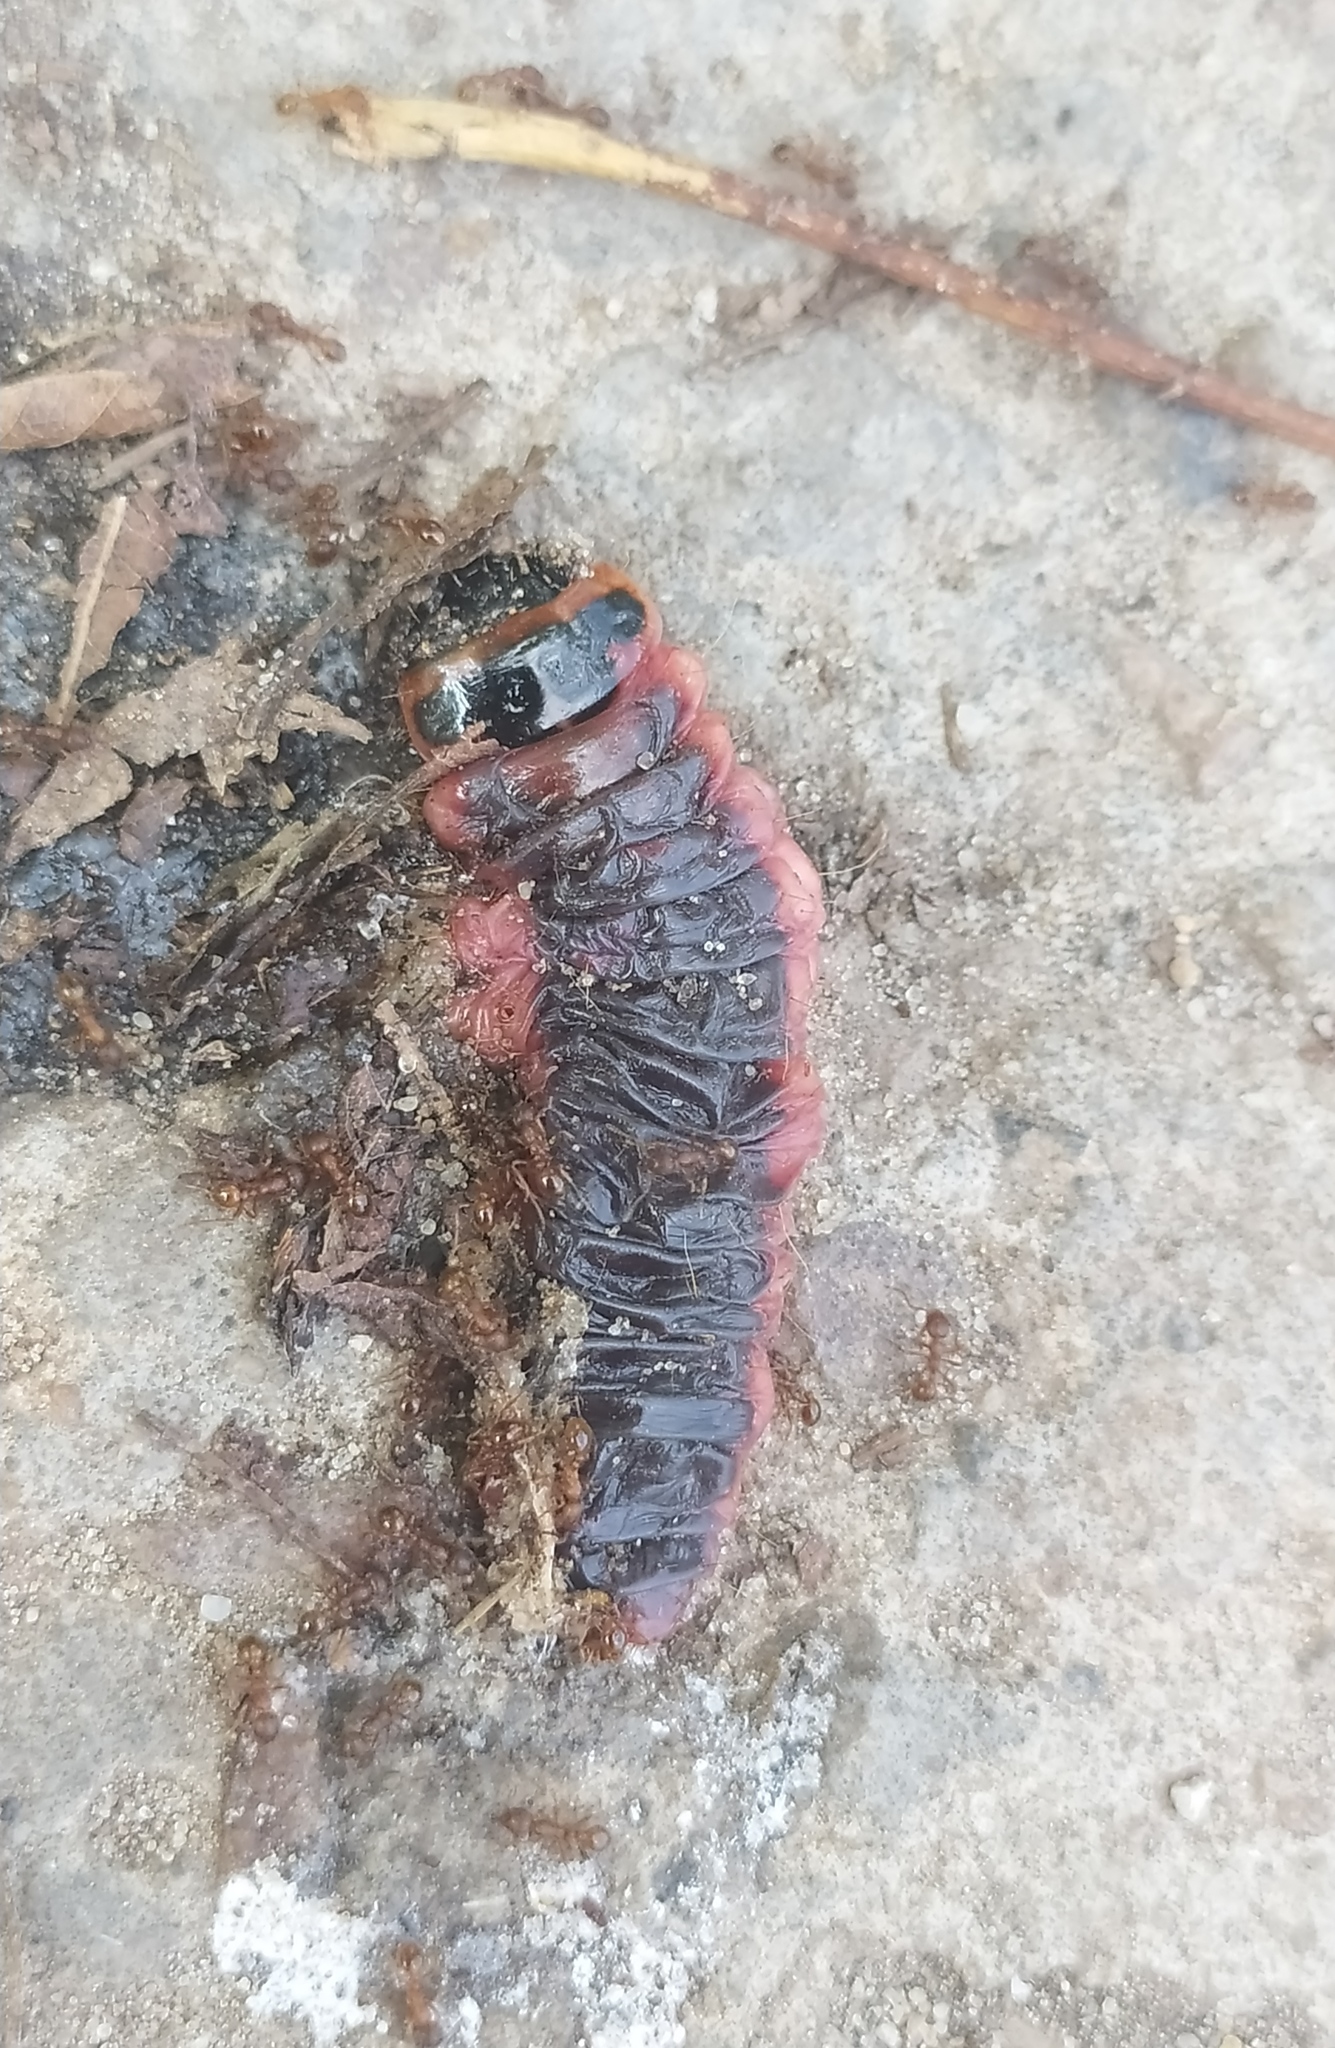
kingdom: Animalia
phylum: Arthropoda
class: Insecta
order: Lepidoptera
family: Cossidae
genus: Cossus
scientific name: Cossus cossus
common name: Goat moth
